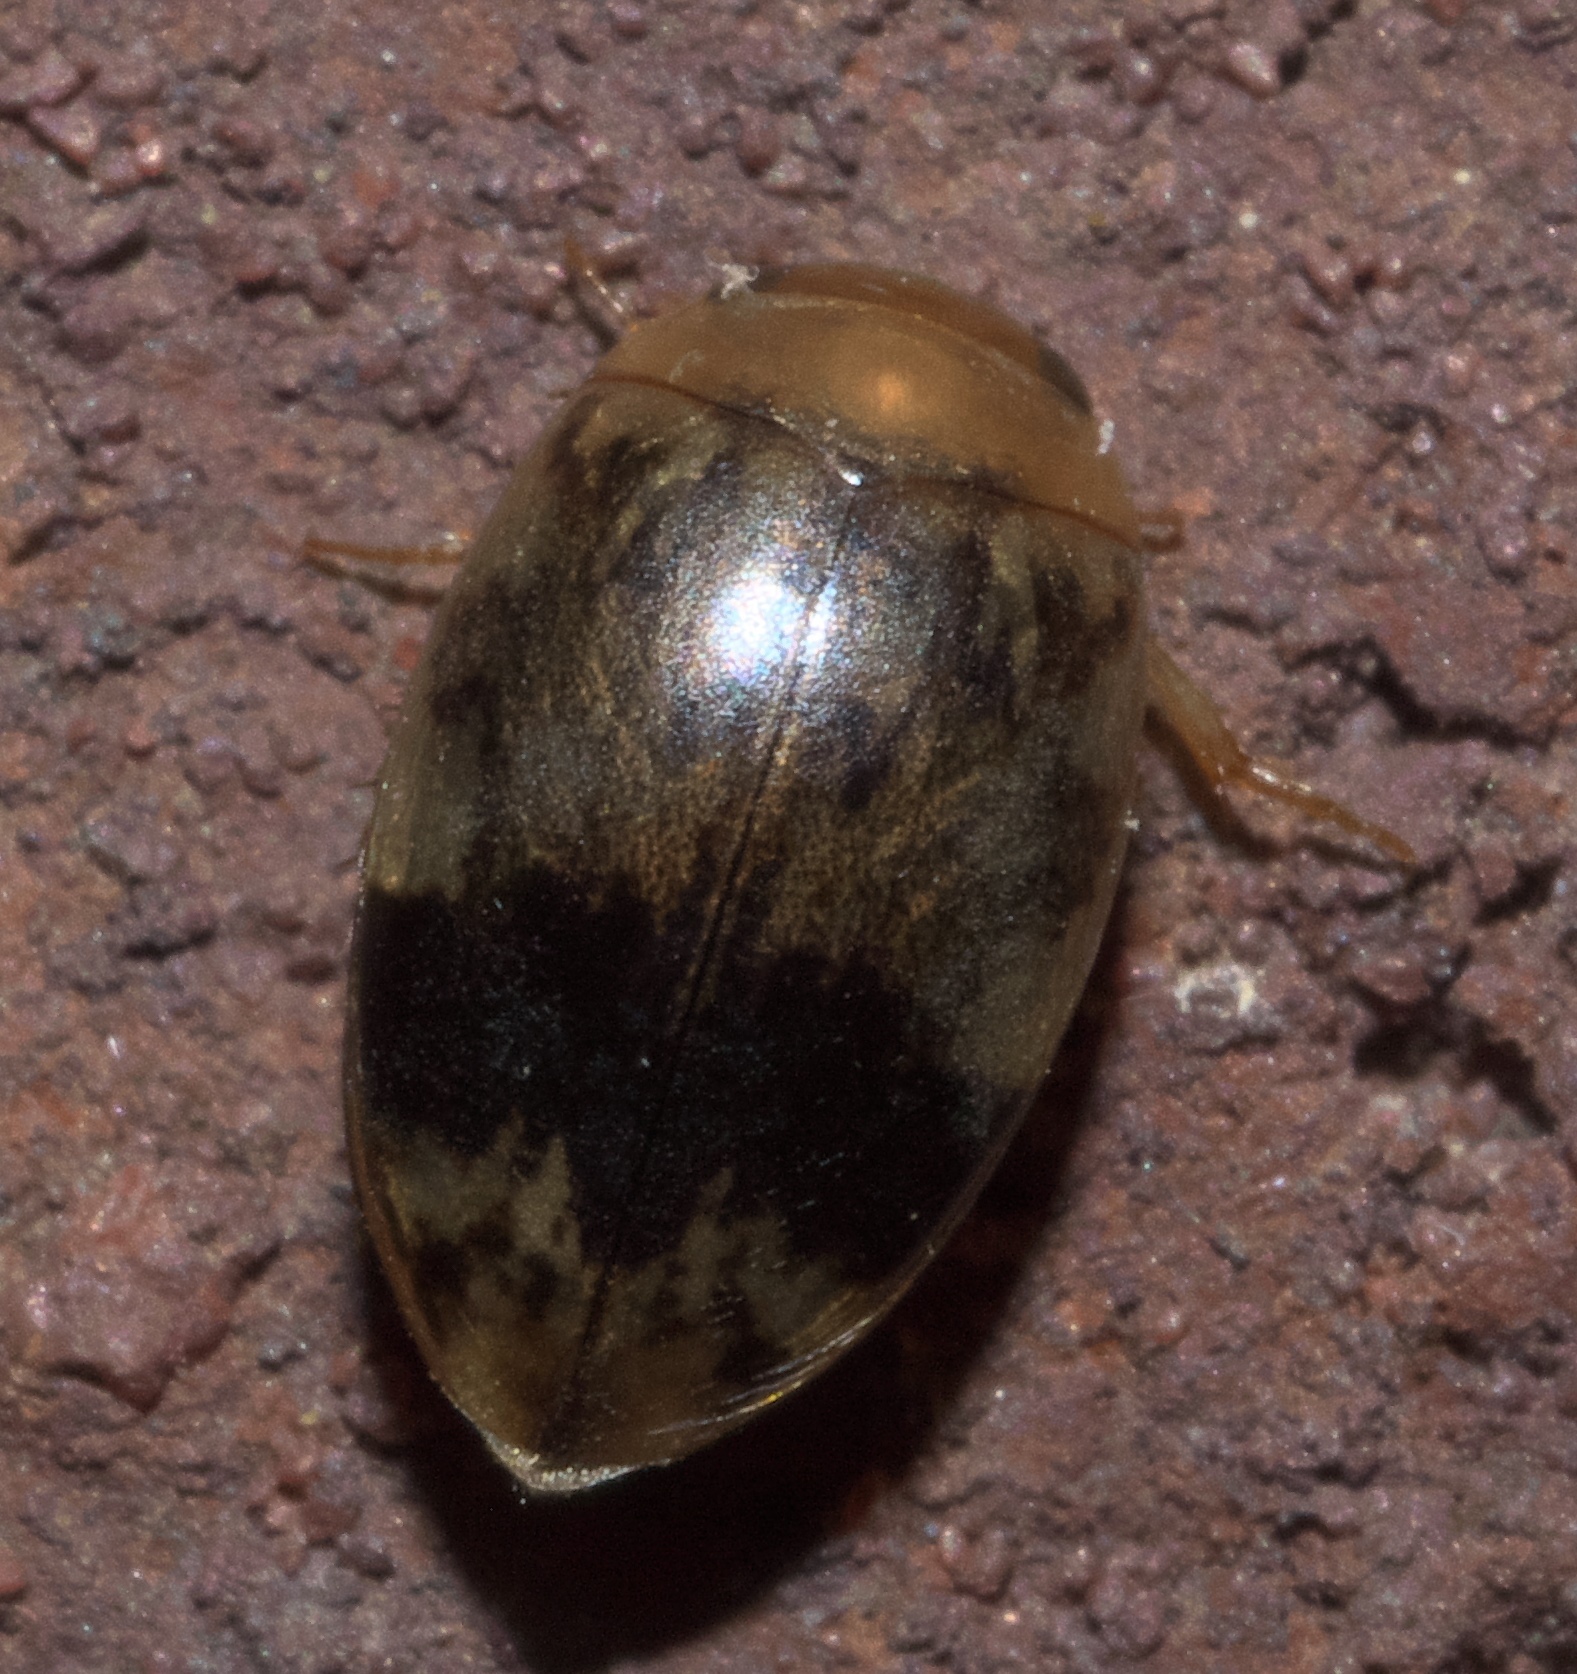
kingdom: Animalia
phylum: Arthropoda
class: Insecta
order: Coleoptera
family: Dytiscidae
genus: Laccophilus
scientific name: Laccophilus fasciatus
